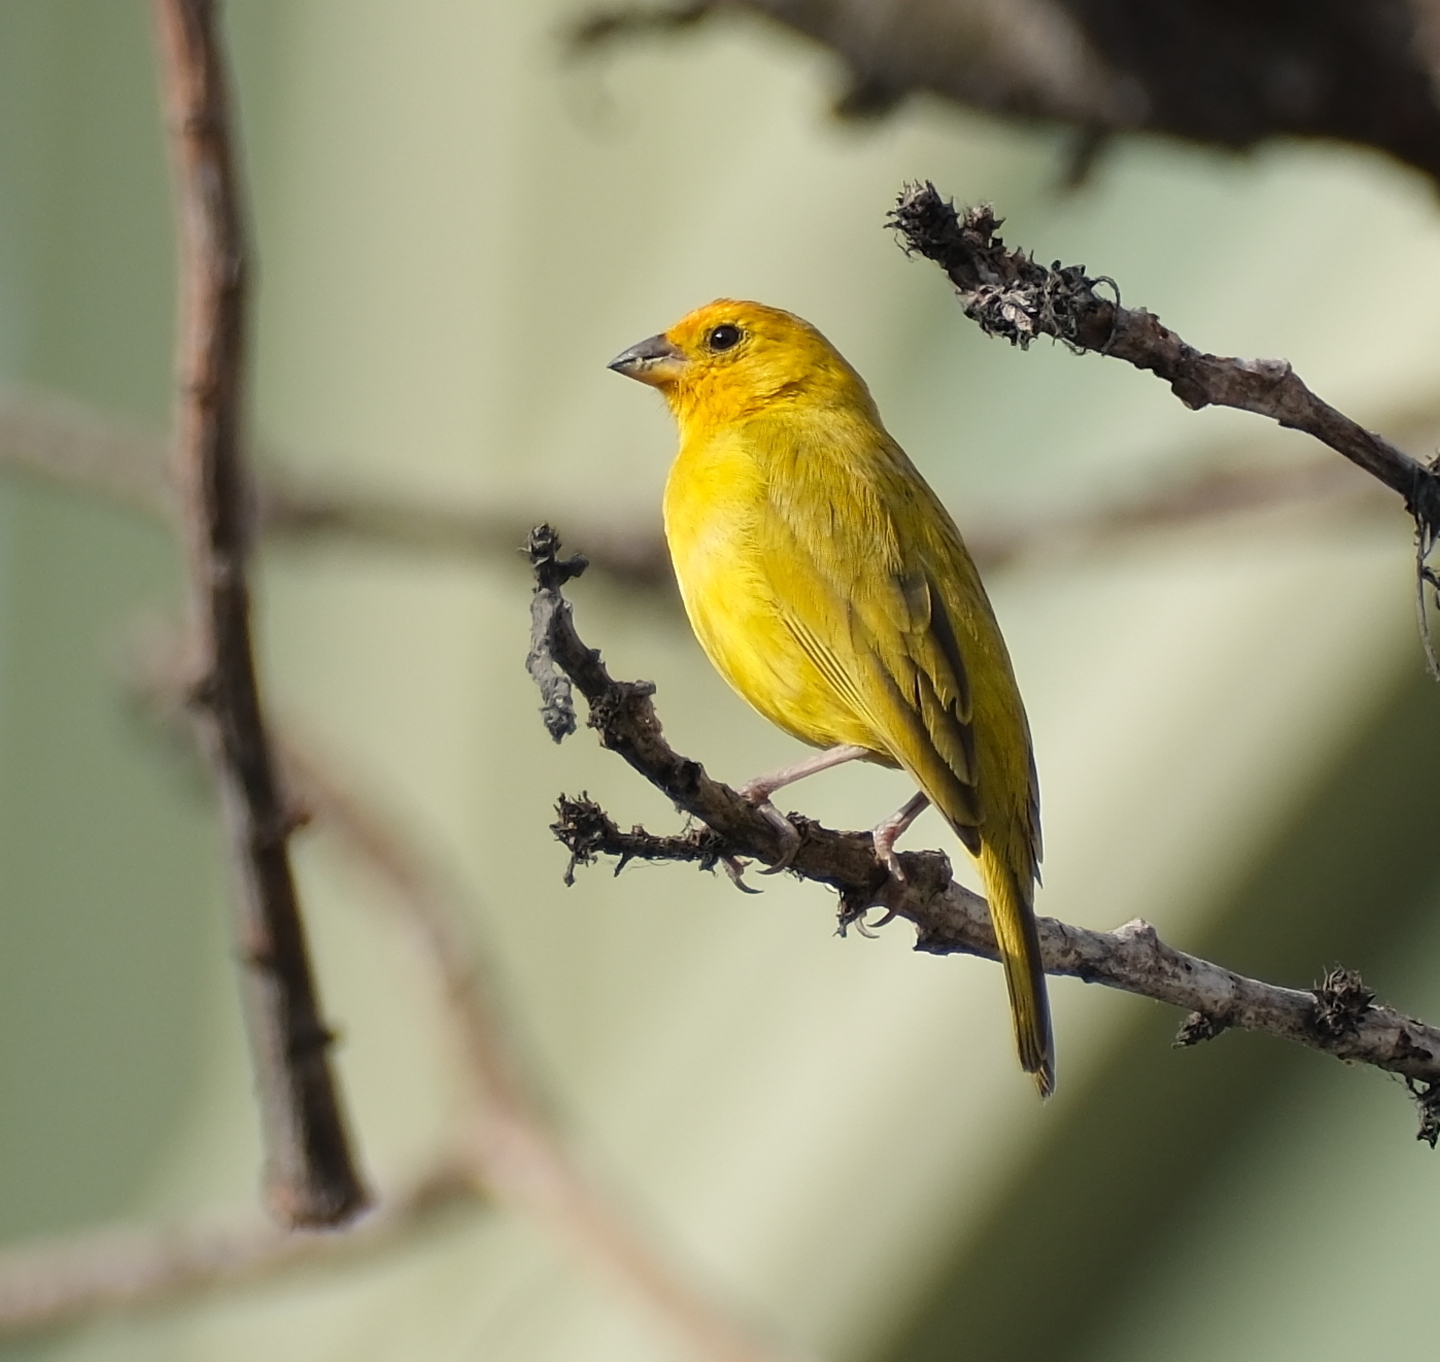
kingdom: Animalia
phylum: Chordata
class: Aves
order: Passeriformes
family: Thraupidae
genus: Sicalis
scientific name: Sicalis flaveola
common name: Saffron finch
